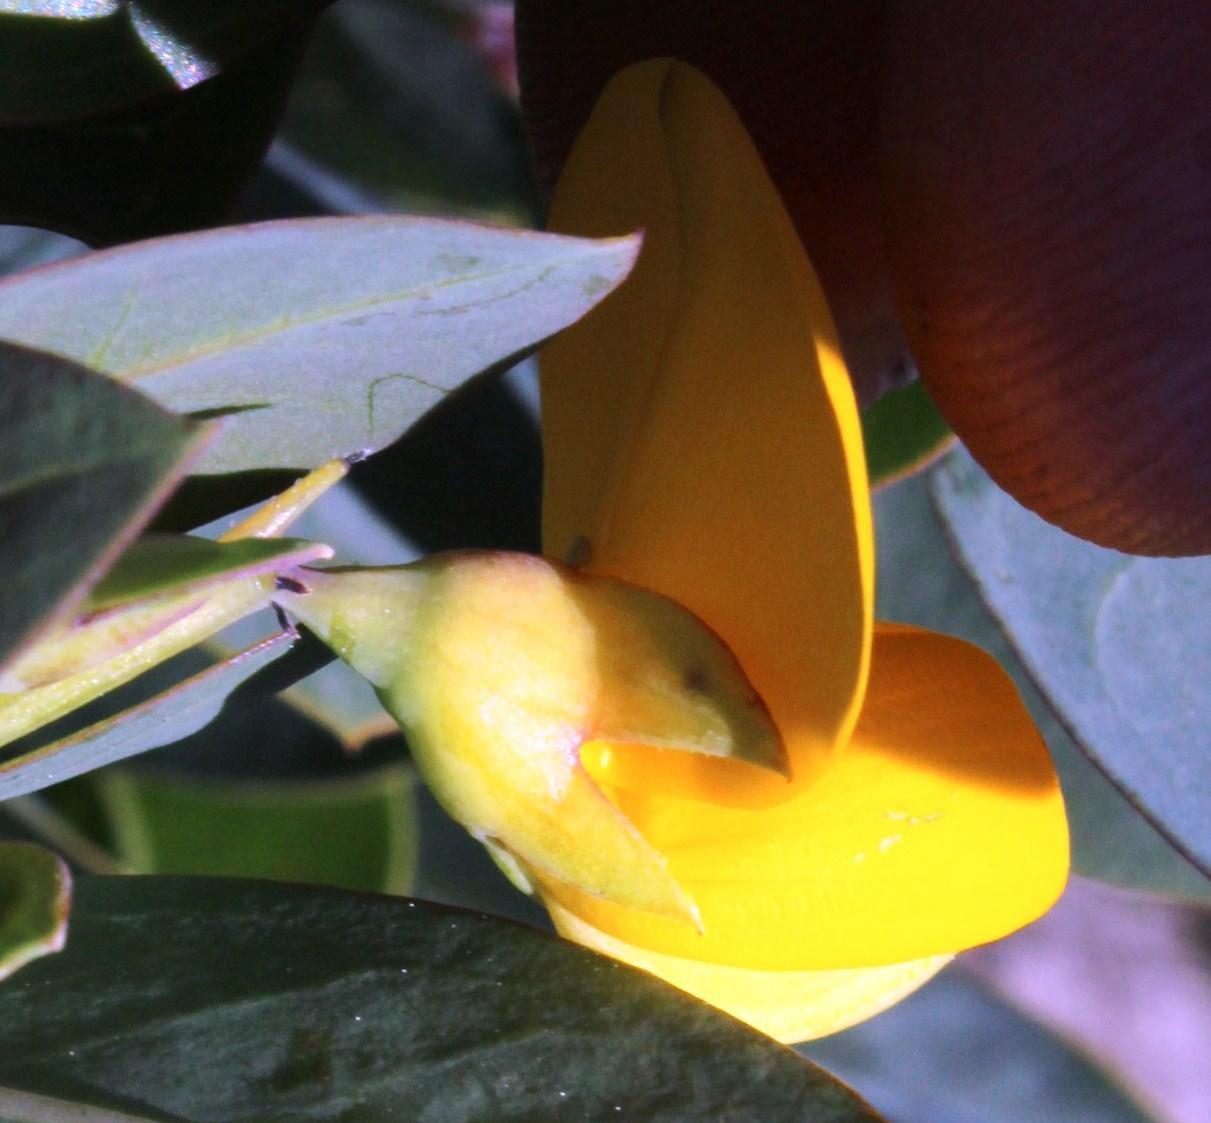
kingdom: Plantae
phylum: Tracheophyta
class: Magnoliopsida
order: Fabales
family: Fabaceae
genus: Rafnia
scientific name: Rafnia triflora
